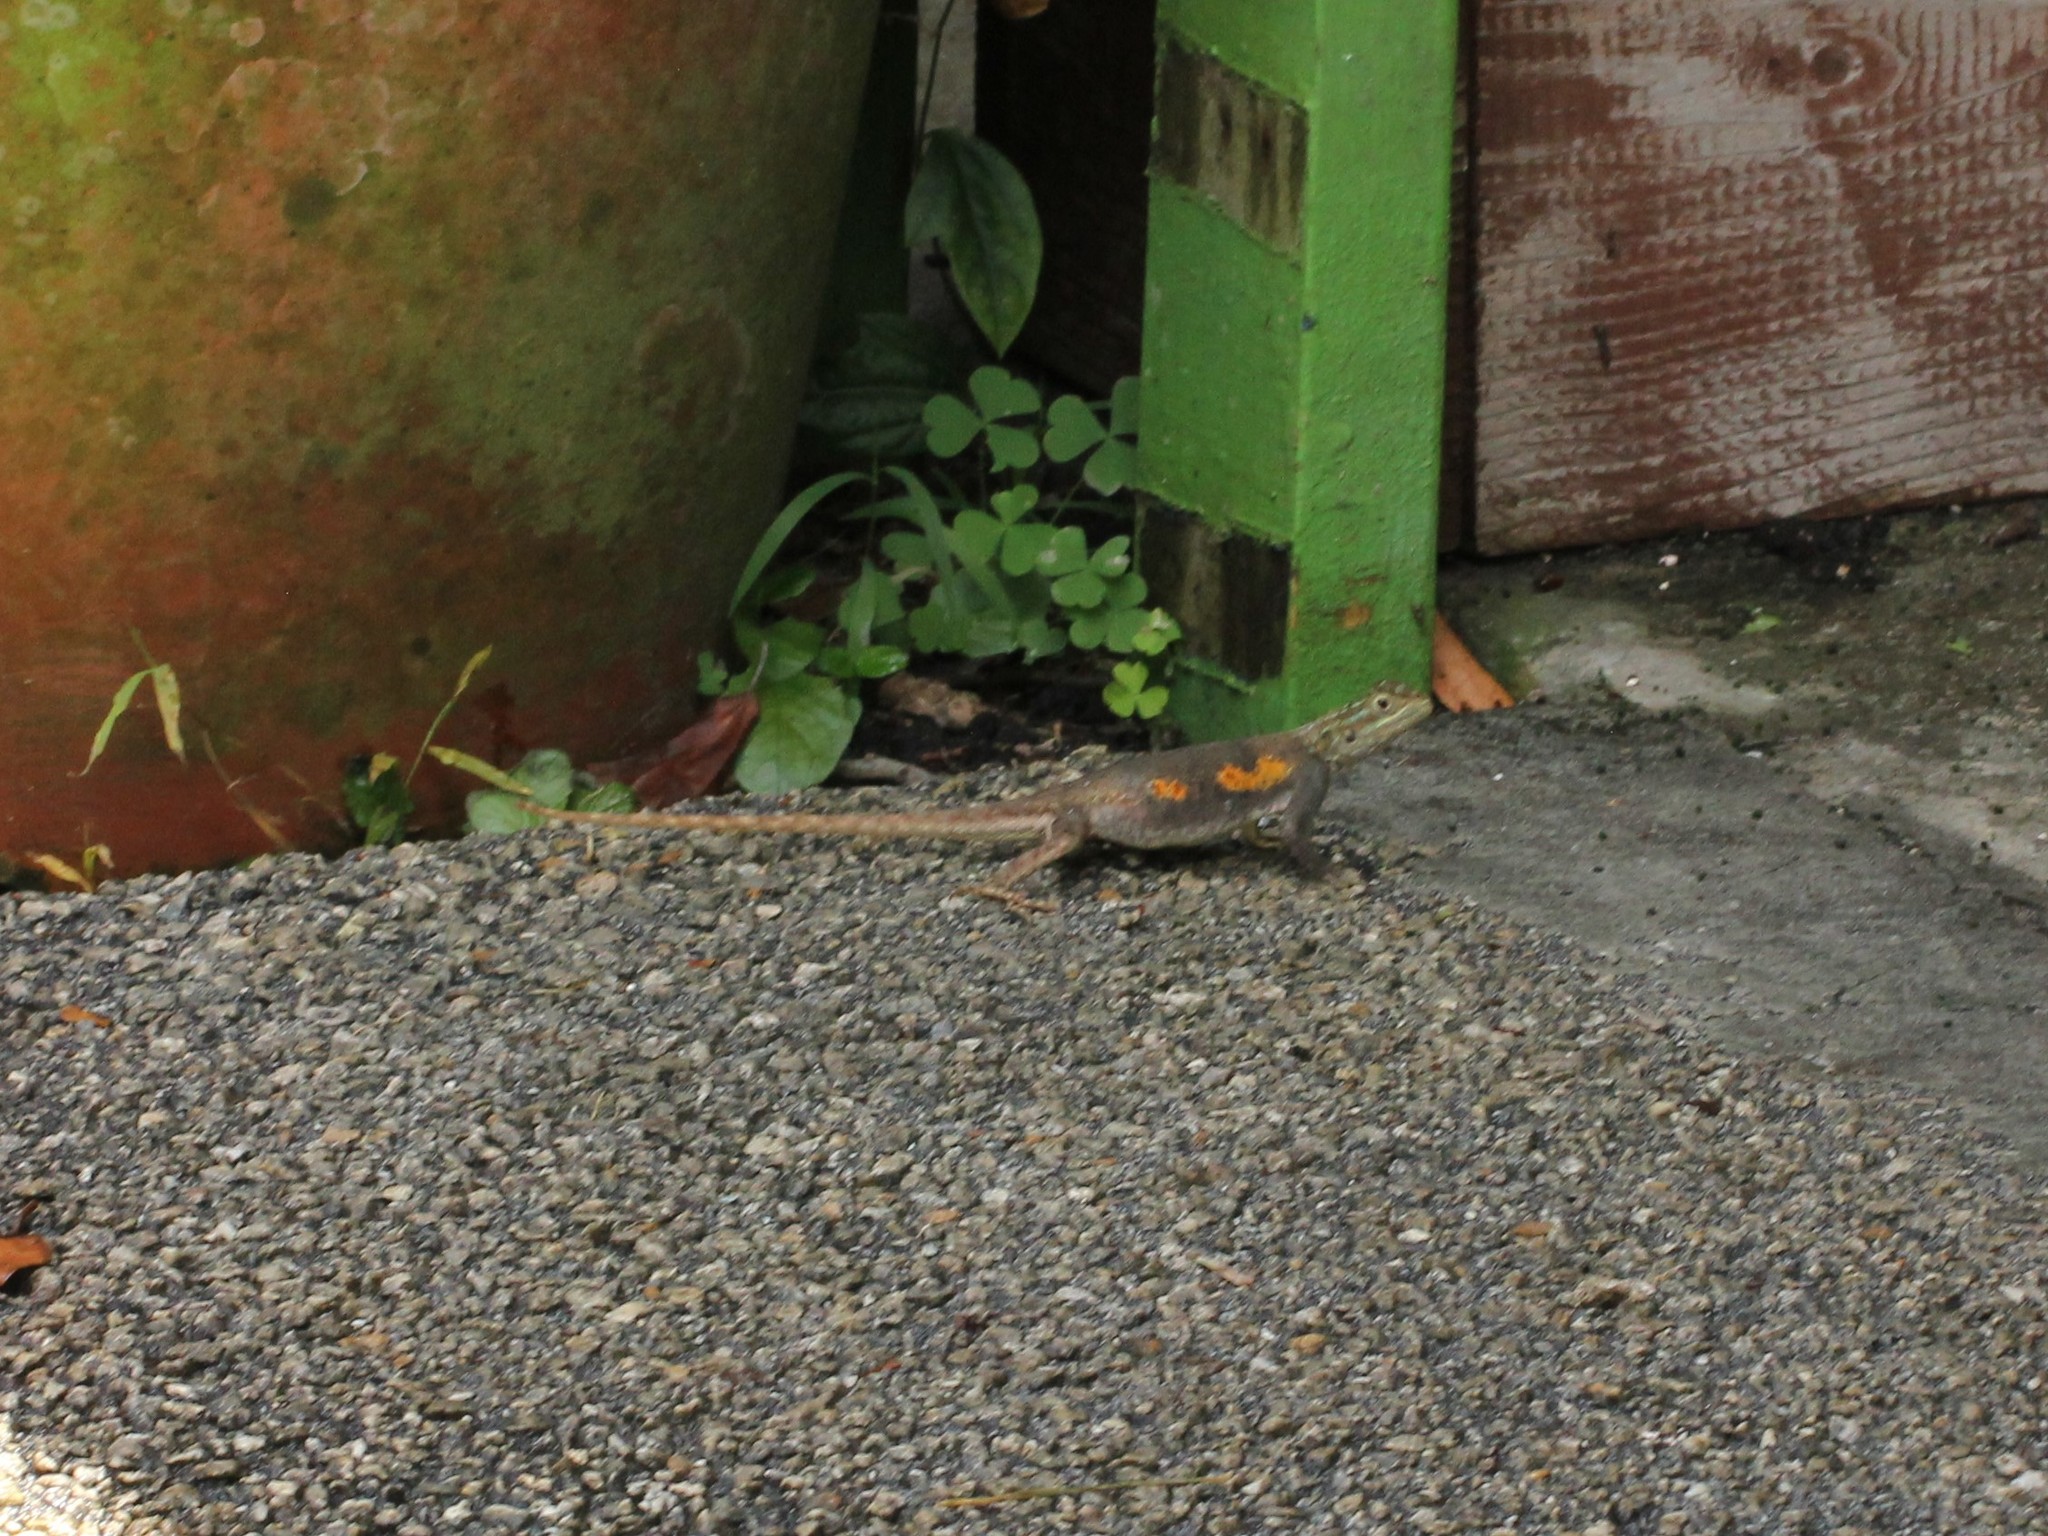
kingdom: Animalia
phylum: Chordata
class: Squamata
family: Agamidae
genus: Agama
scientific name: Agama picticauda
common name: Red-headed agama
